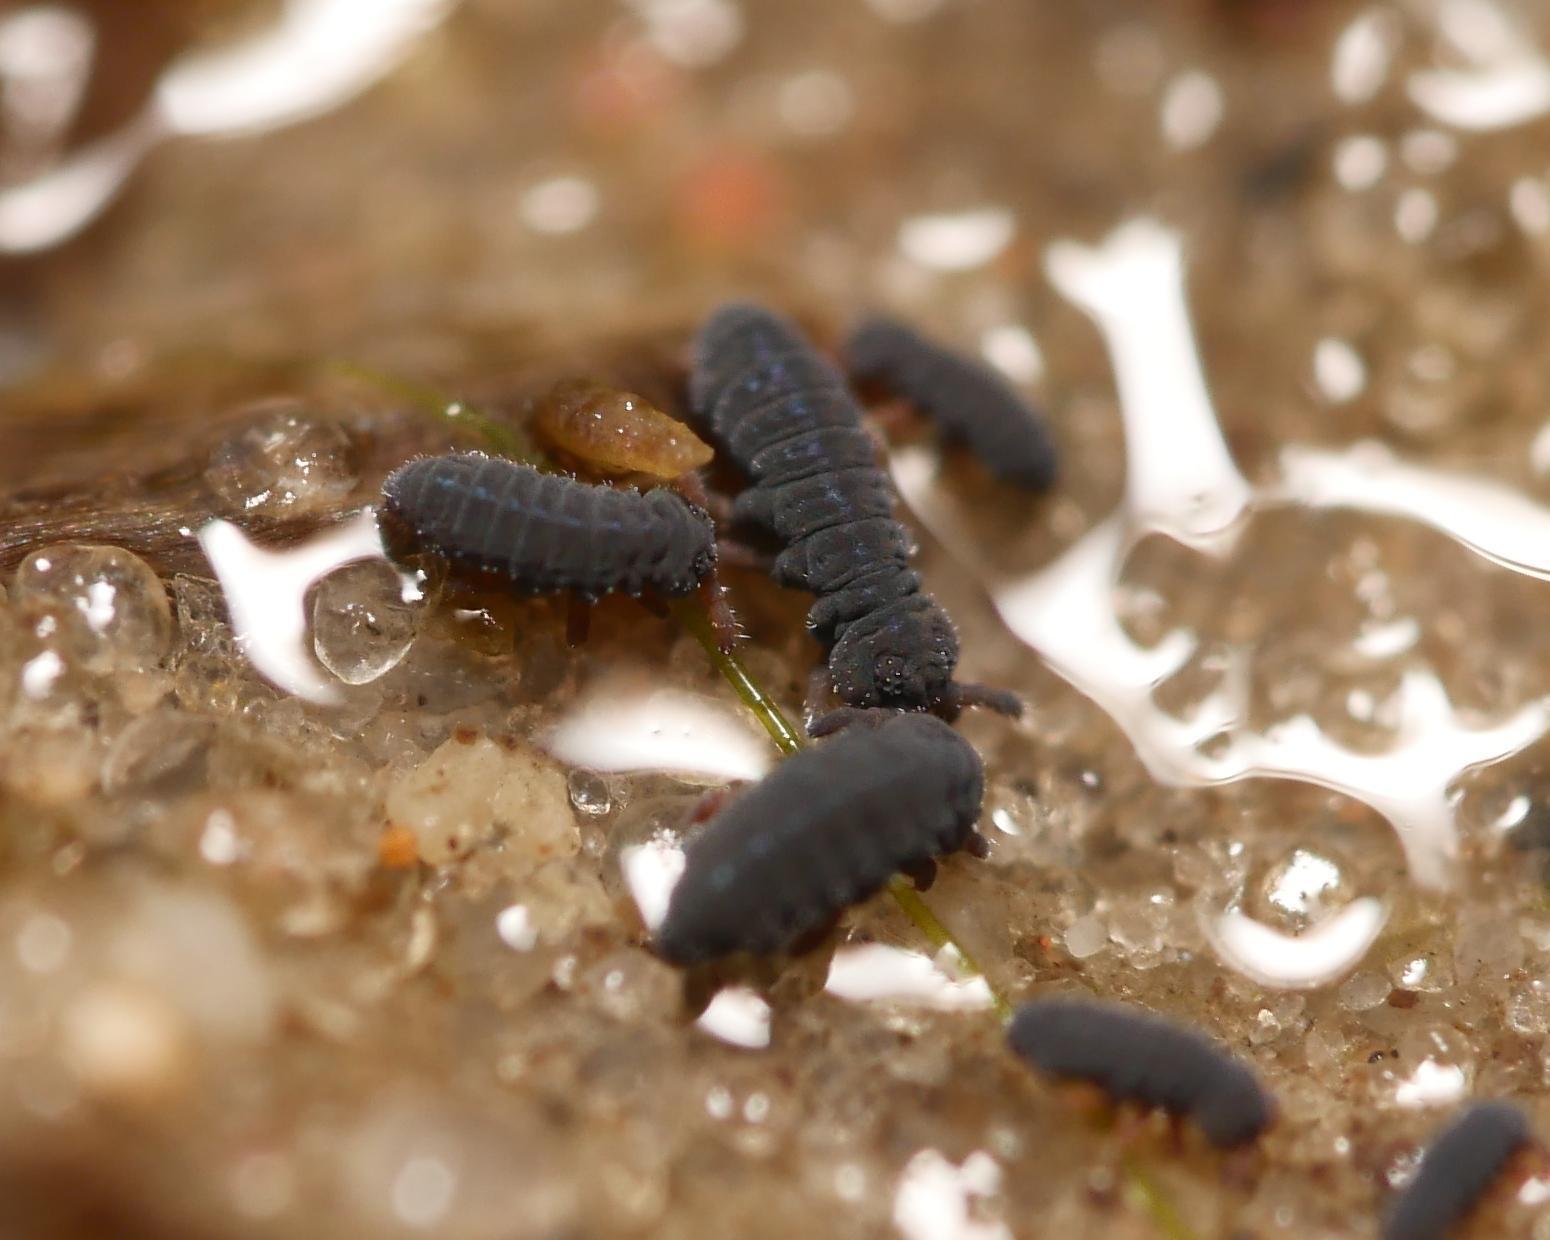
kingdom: Animalia
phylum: Arthropoda
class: Collembola
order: Poduromorpha
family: Poduridae
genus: Podura
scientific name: Podura aquatica
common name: Water springtail
